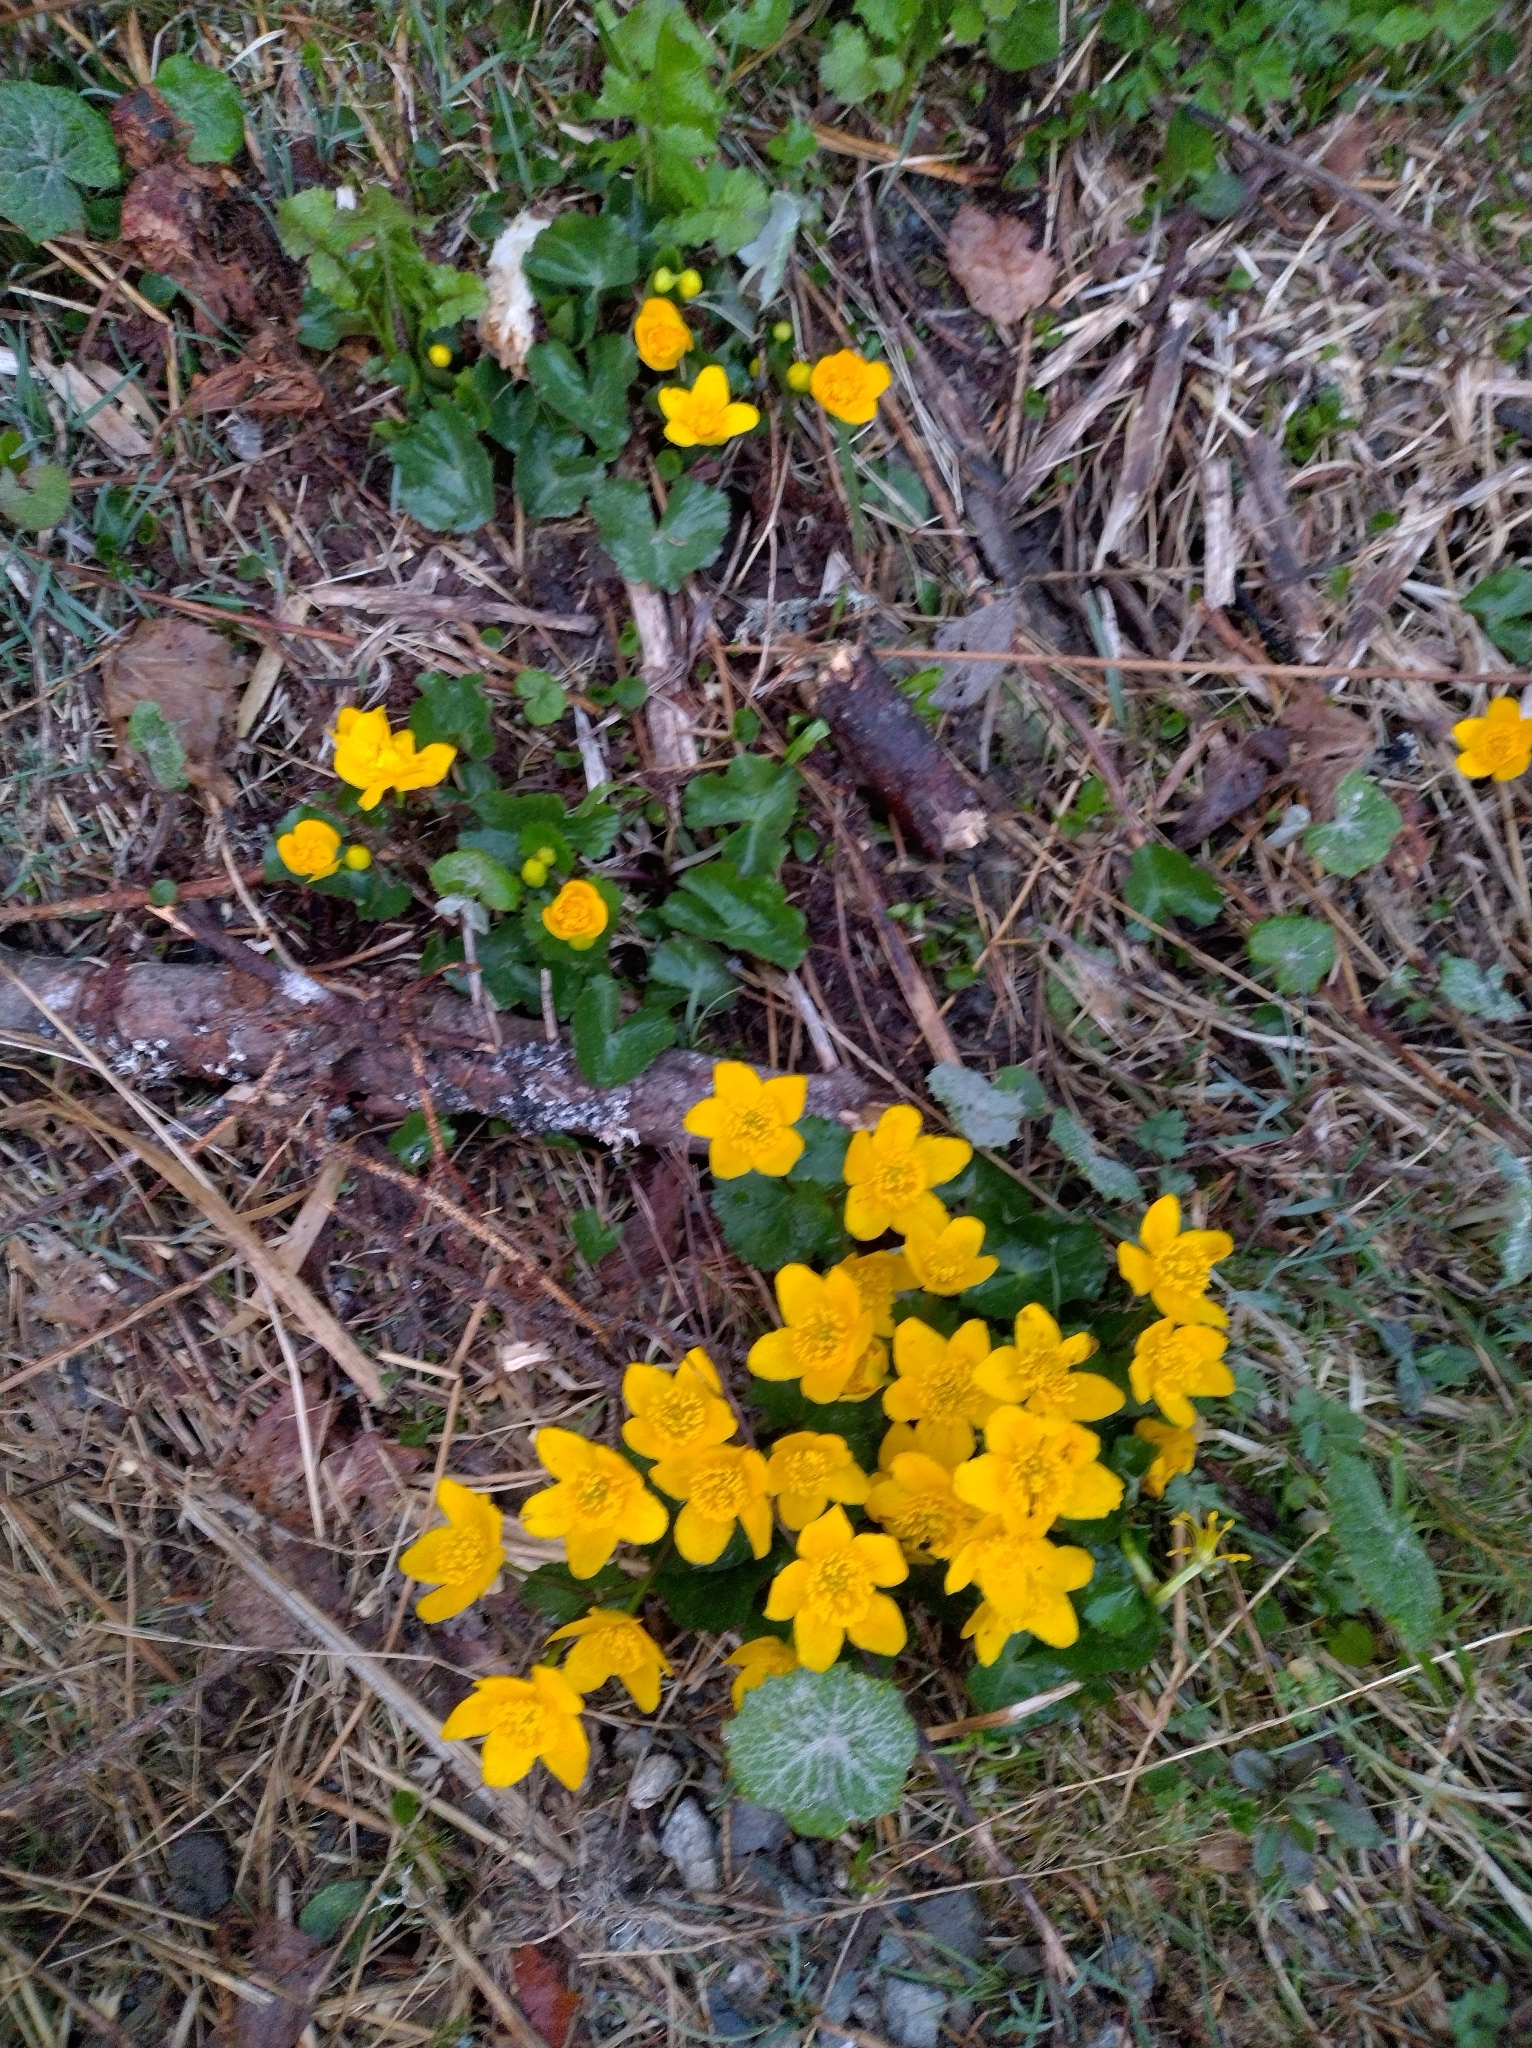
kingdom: Plantae
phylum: Tracheophyta
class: Magnoliopsida
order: Ranunculales
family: Ranunculaceae
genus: Caltha
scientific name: Caltha palustris
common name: Marsh marigold
